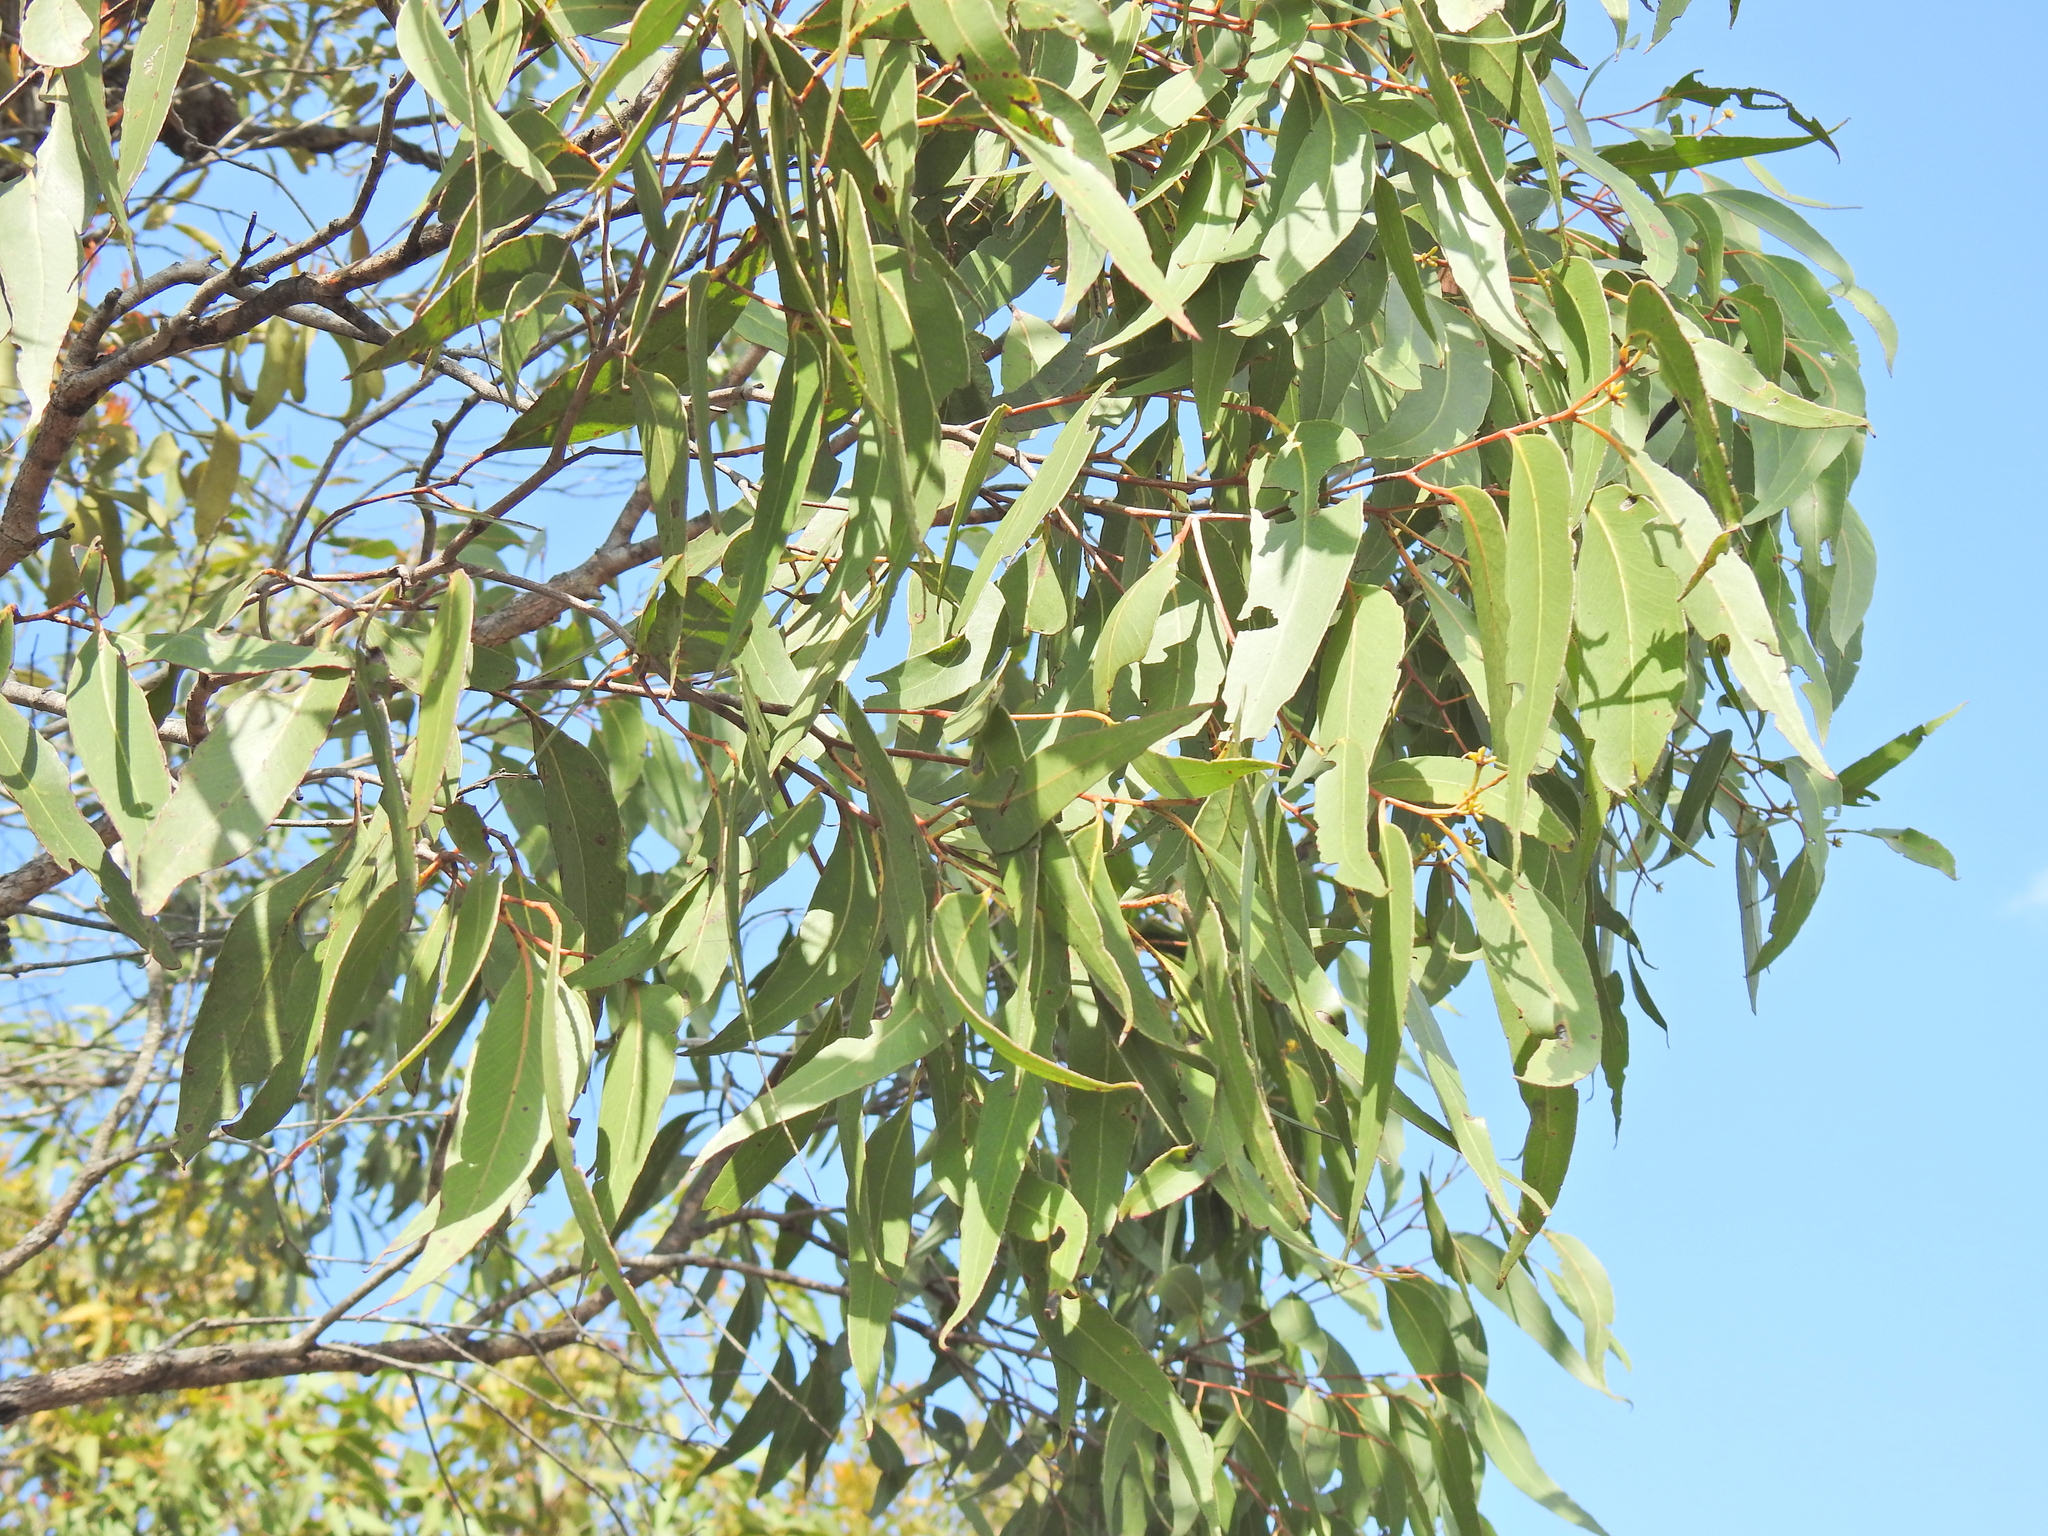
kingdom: Plantae
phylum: Tracheophyta
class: Magnoliopsida
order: Myrtales
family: Myrtaceae
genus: Eucalyptus
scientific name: Eucalyptus latisinensis
